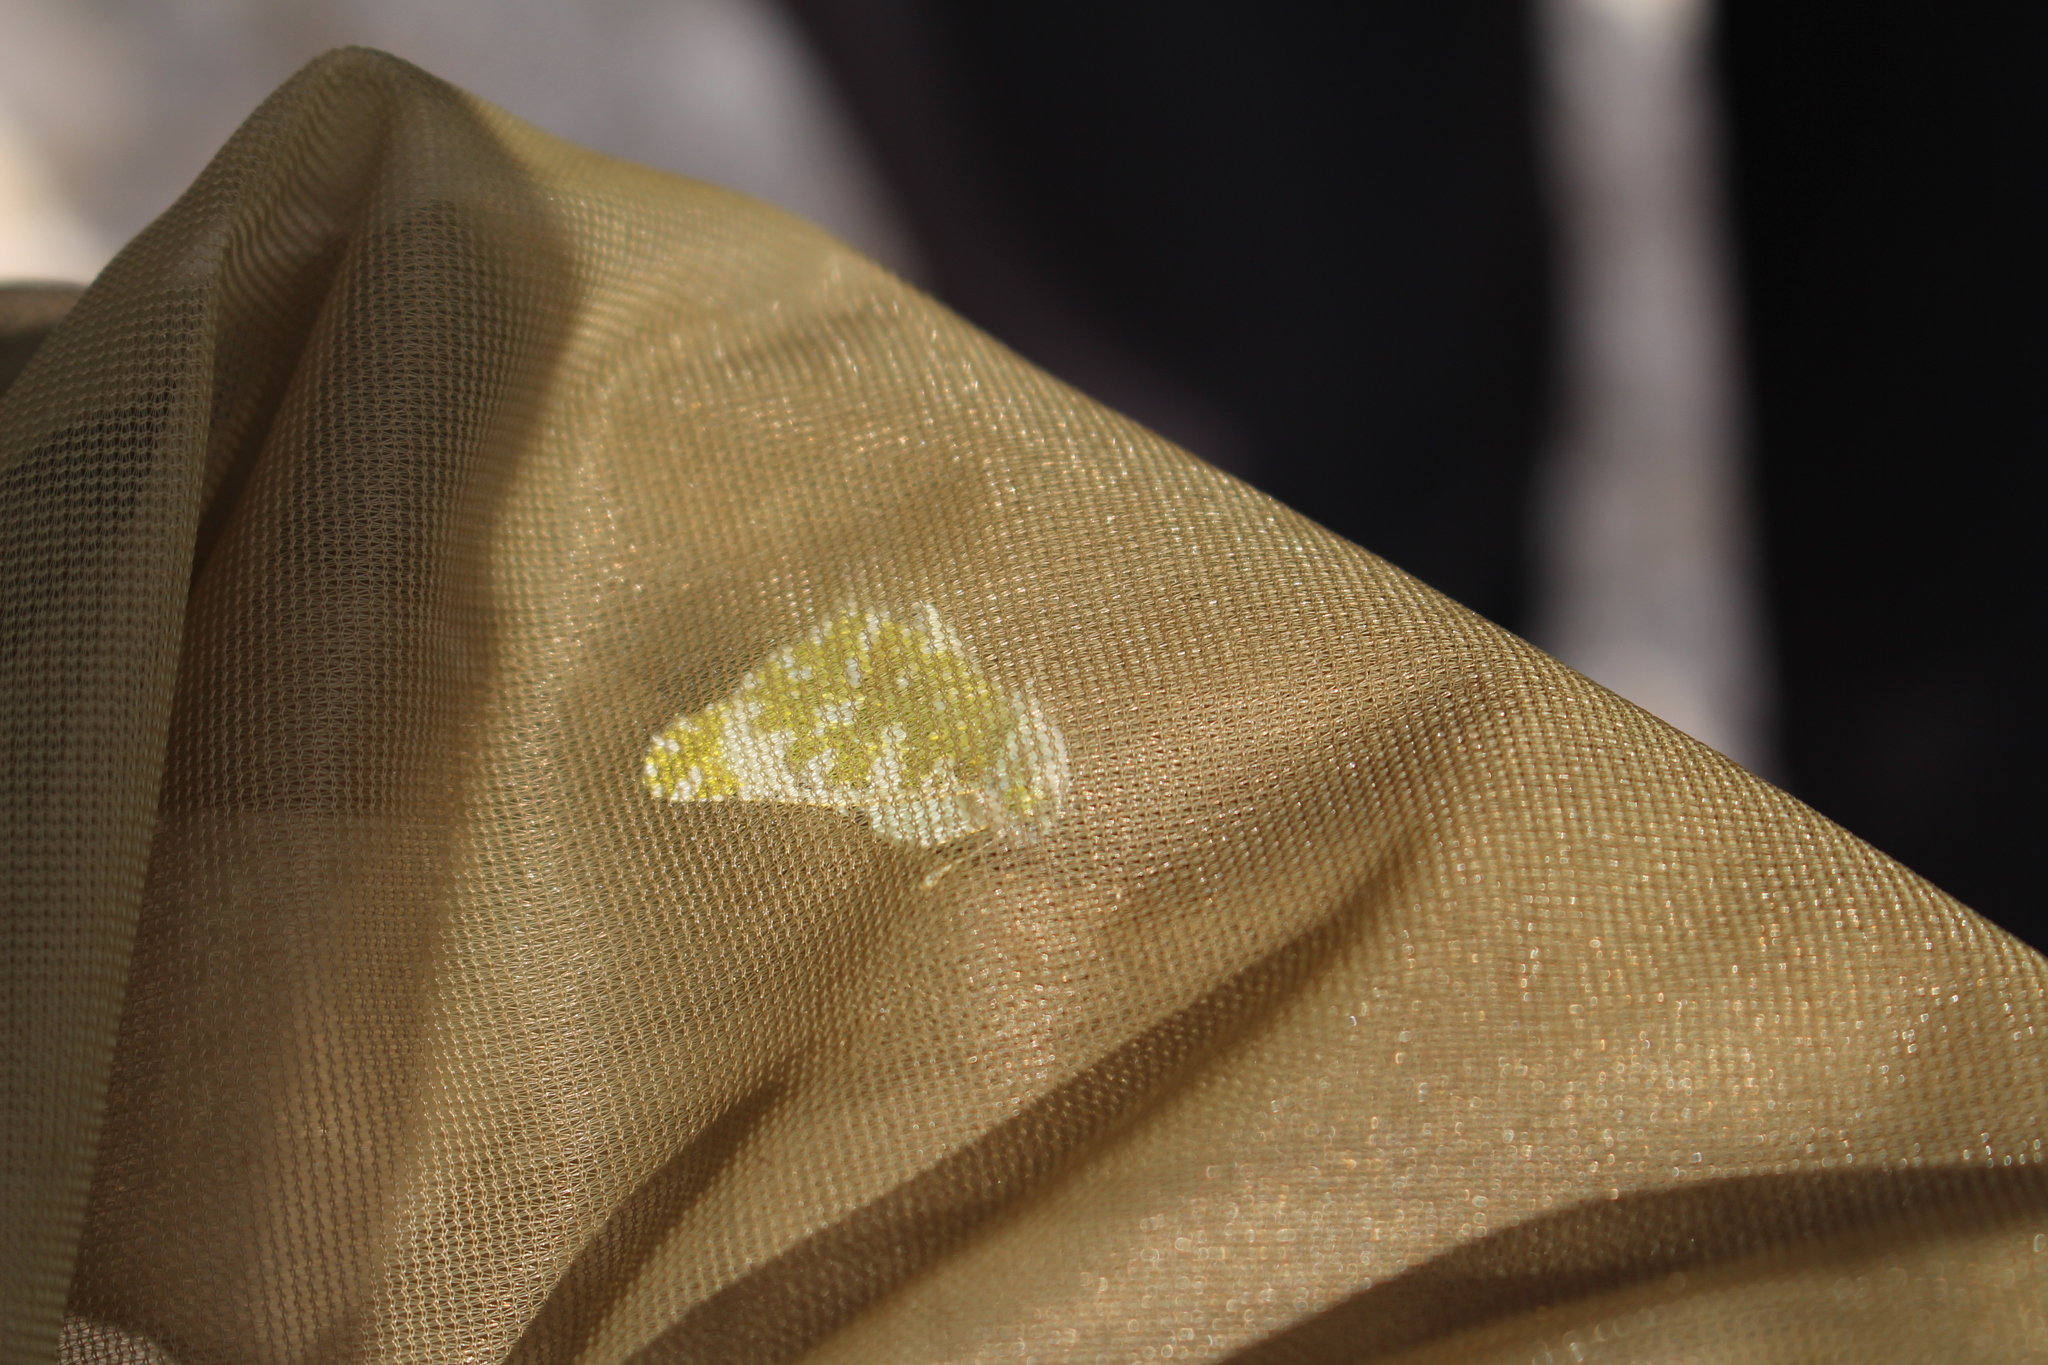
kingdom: Animalia
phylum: Arthropoda
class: Insecta
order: Lepidoptera
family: Pieridae
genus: Euchloe
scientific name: Euchloe crameri
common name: Western dappled white
